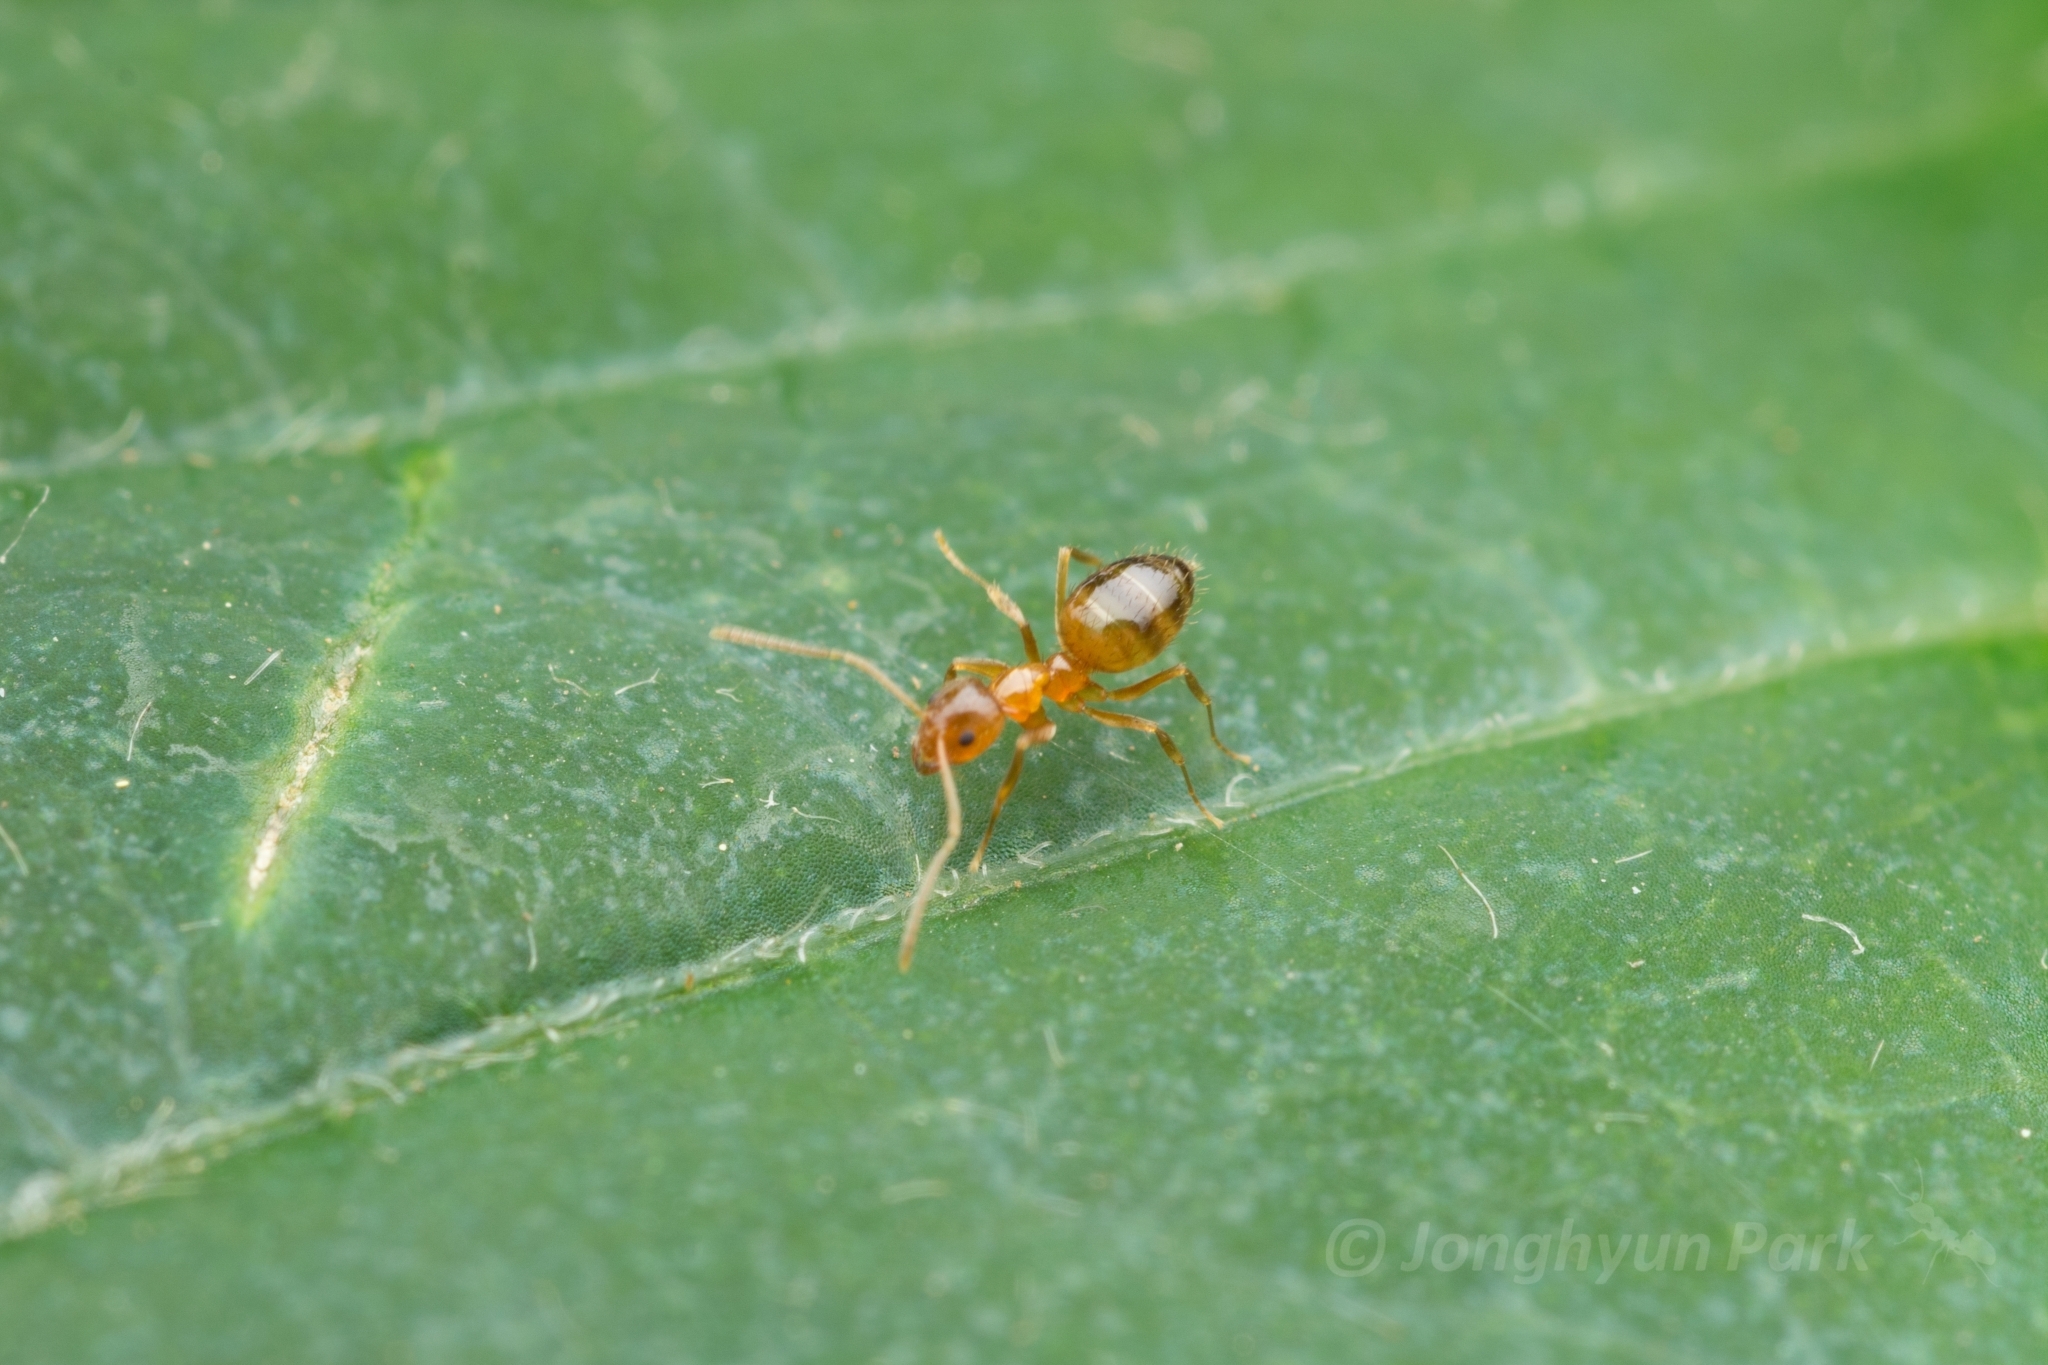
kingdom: Animalia
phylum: Arthropoda
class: Insecta
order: Hymenoptera
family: Formicidae
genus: Paratrechina
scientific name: Paratrechina flavipes
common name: Eastern asian formicine ant
